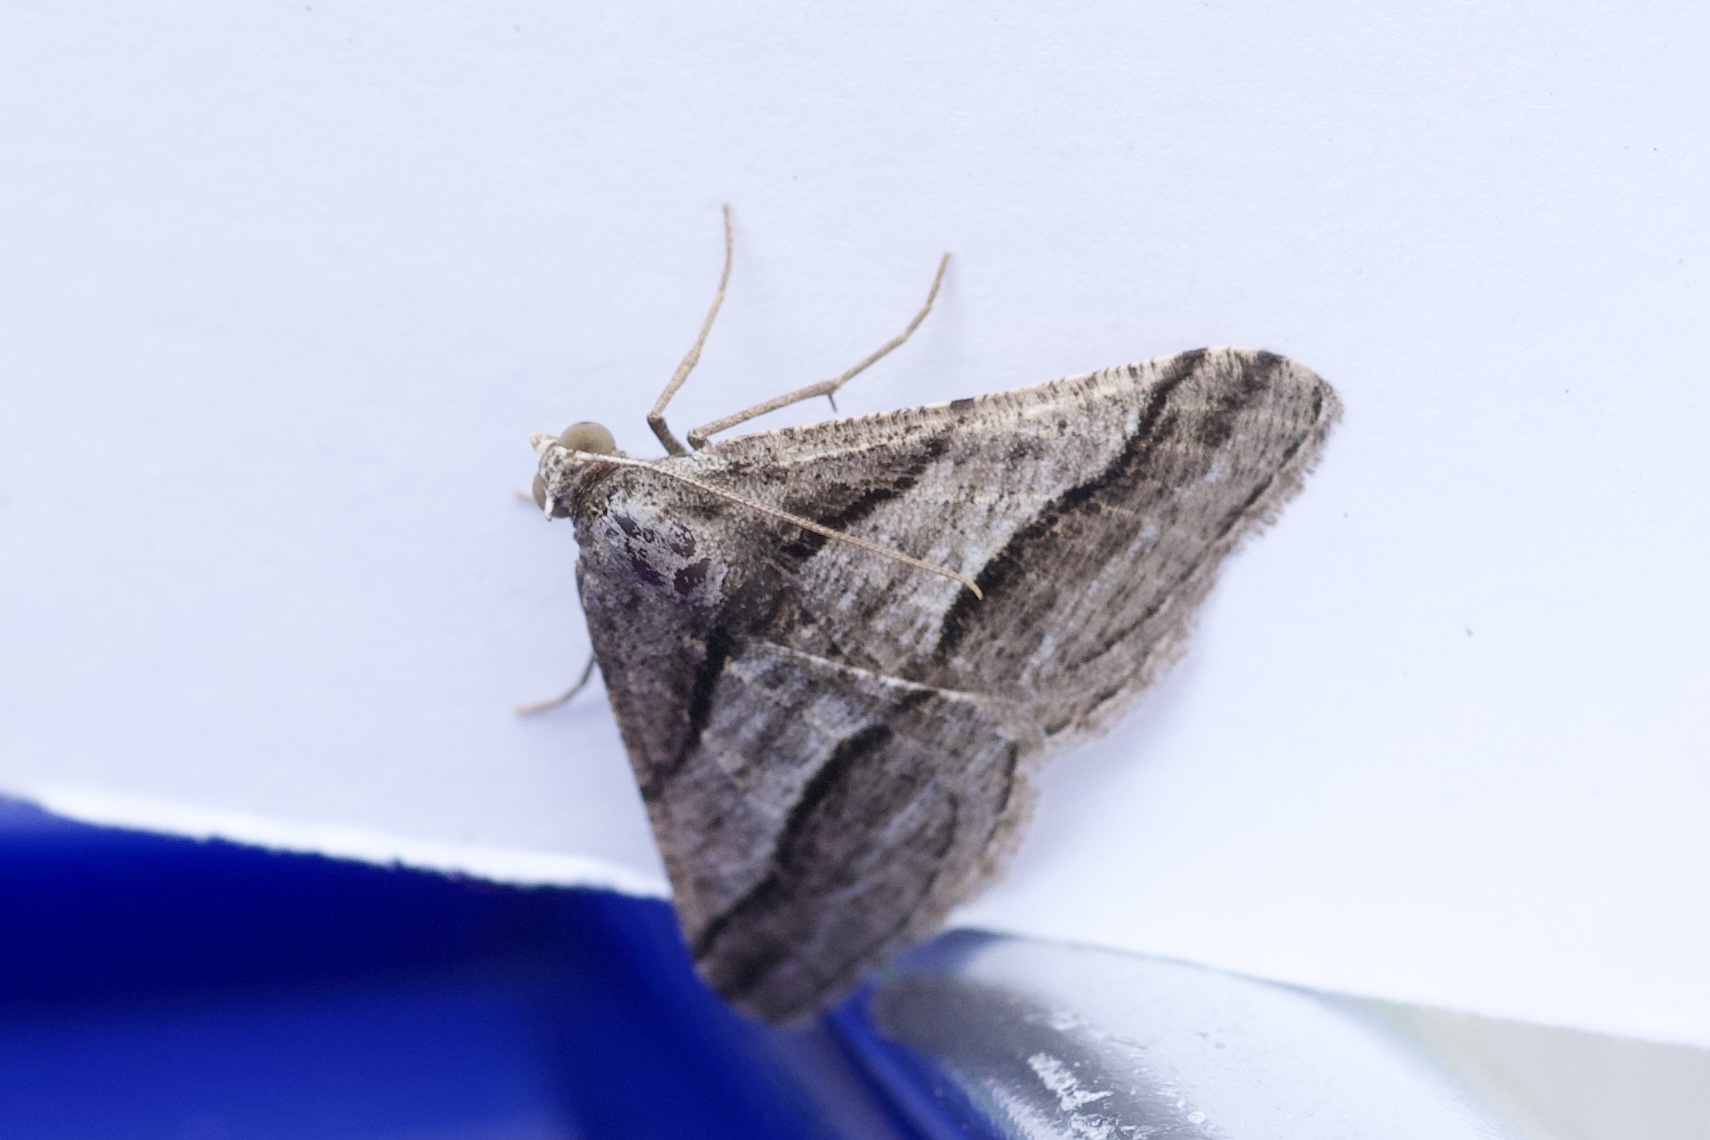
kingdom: Animalia
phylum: Arthropoda
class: Insecta
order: Lepidoptera
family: Geometridae
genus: Digrammia
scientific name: Digrammia continuata
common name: Curve-lined angle
